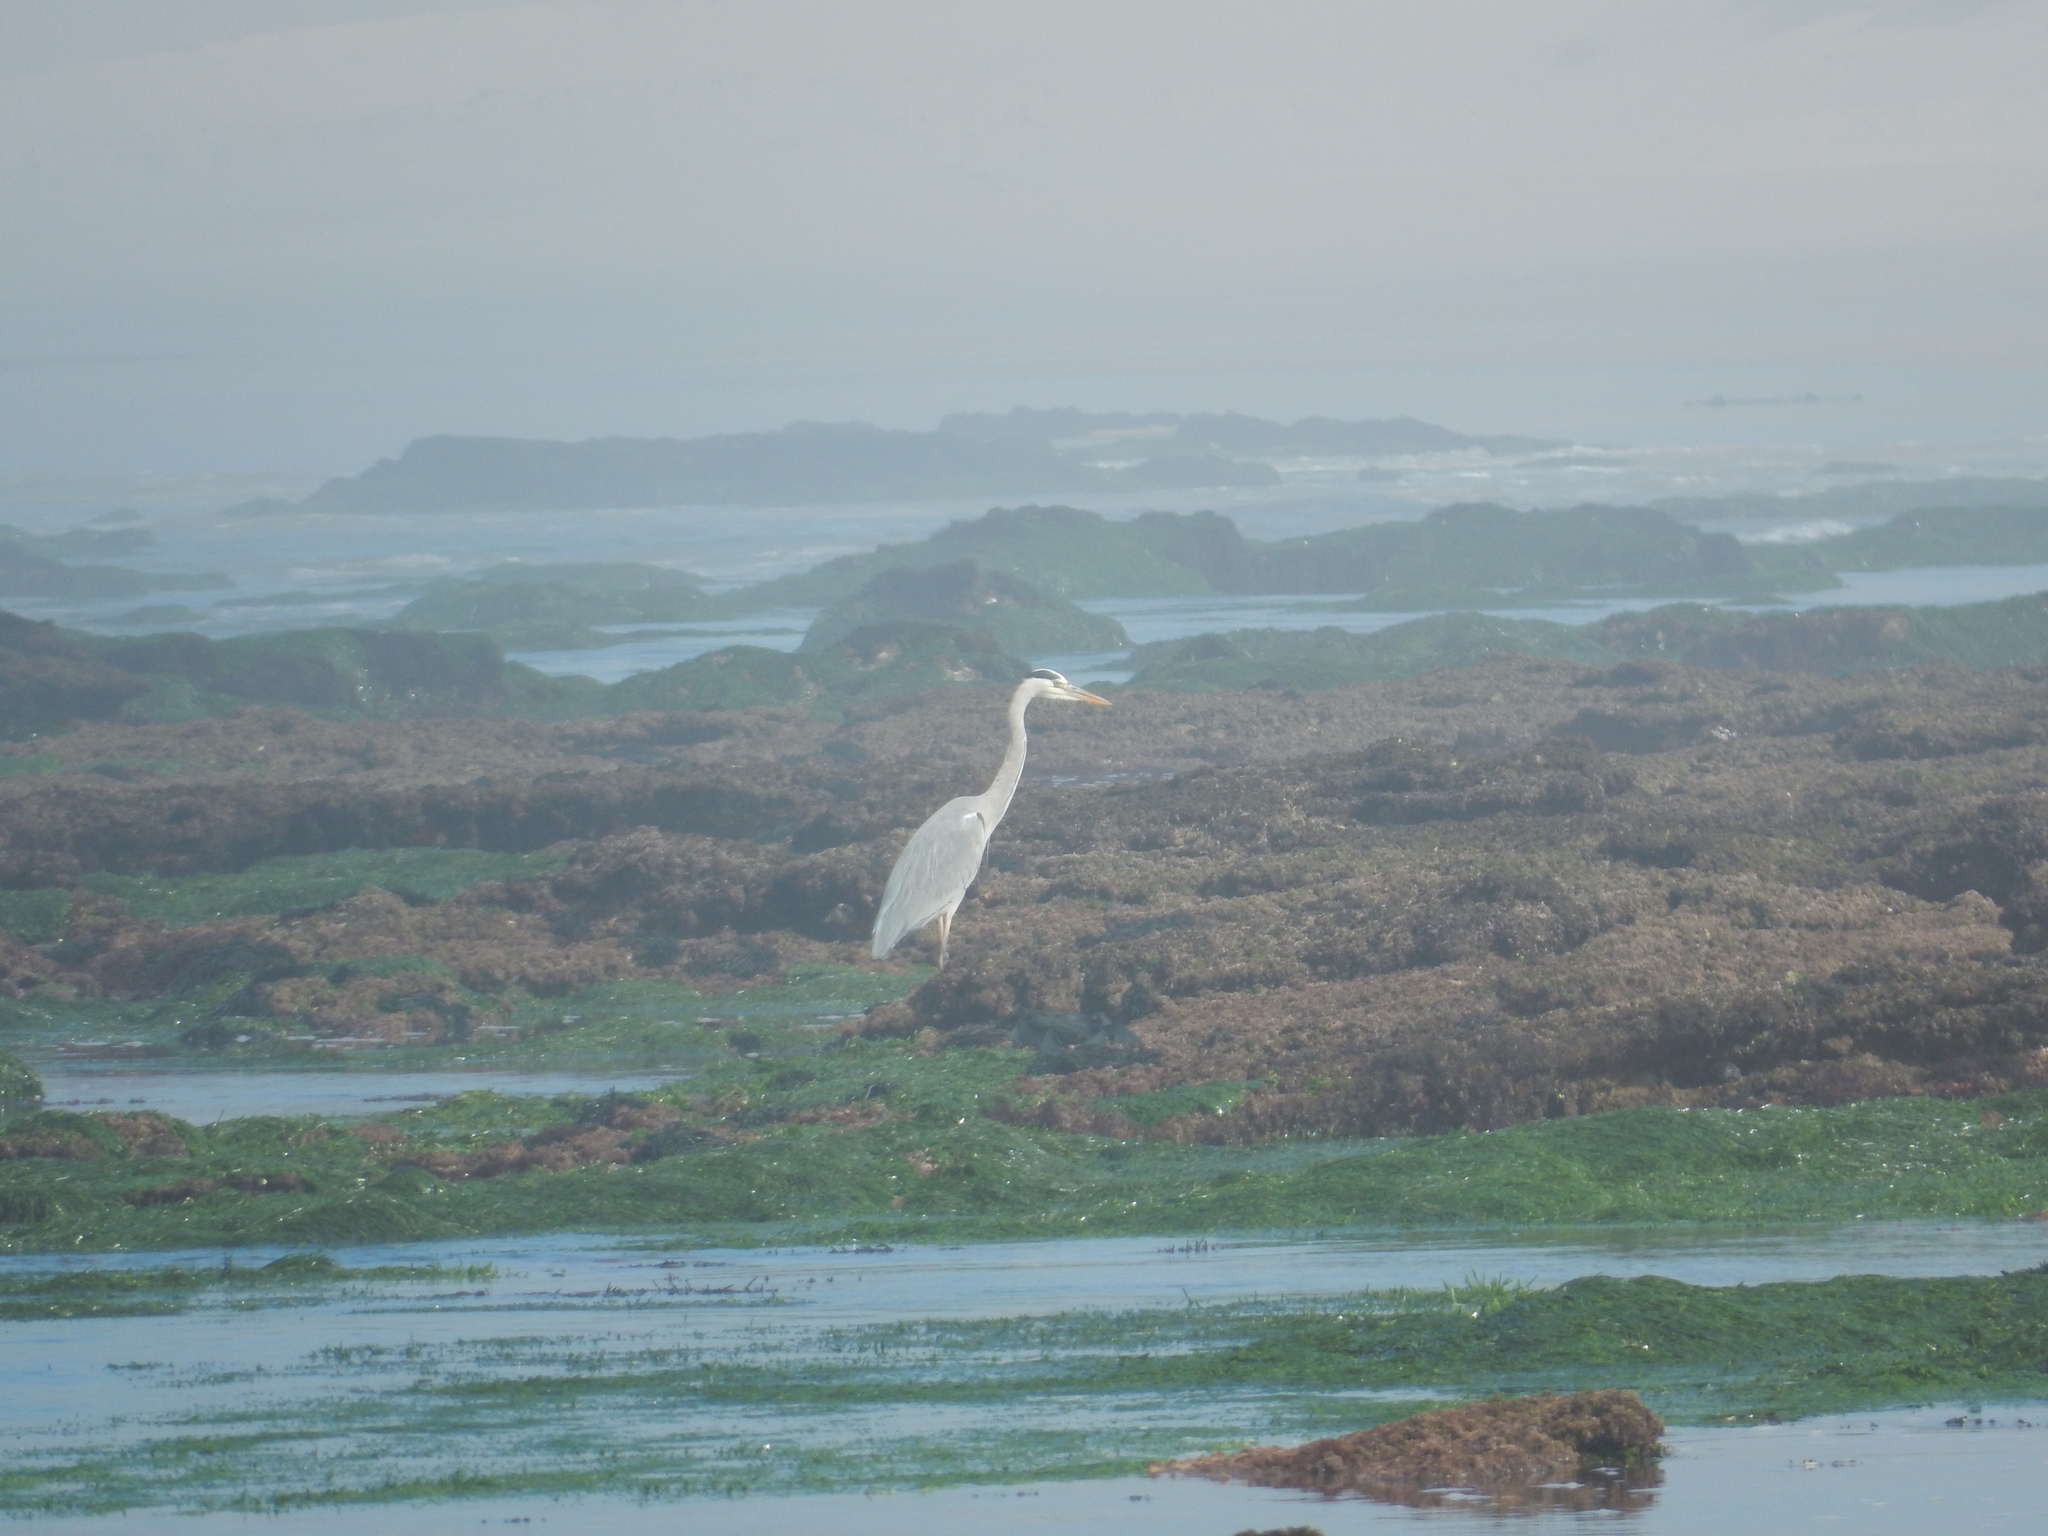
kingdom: Animalia
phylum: Chordata
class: Aves
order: Pelecaniformes
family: Ardeidae
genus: Ardea
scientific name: Ardea cinerea
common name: Grey heron
